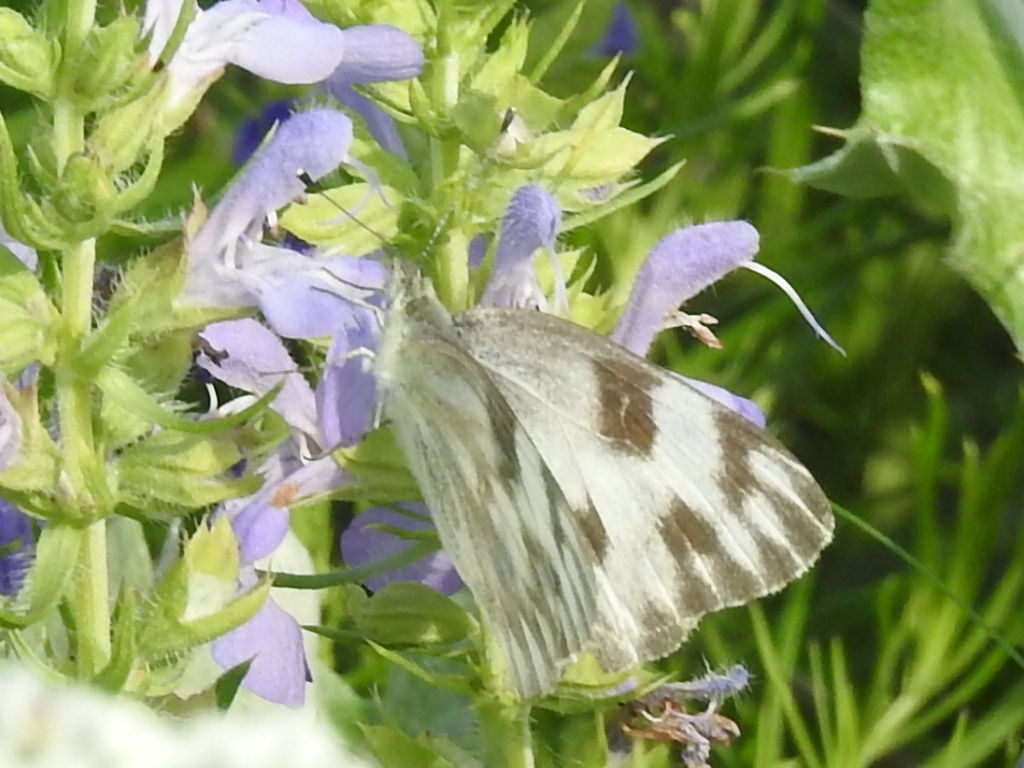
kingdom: Animalia
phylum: Arthropoda
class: Insecta
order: Lepidoptera
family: Pieridae
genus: Pontia
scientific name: Pontia protodice
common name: Checkered white
